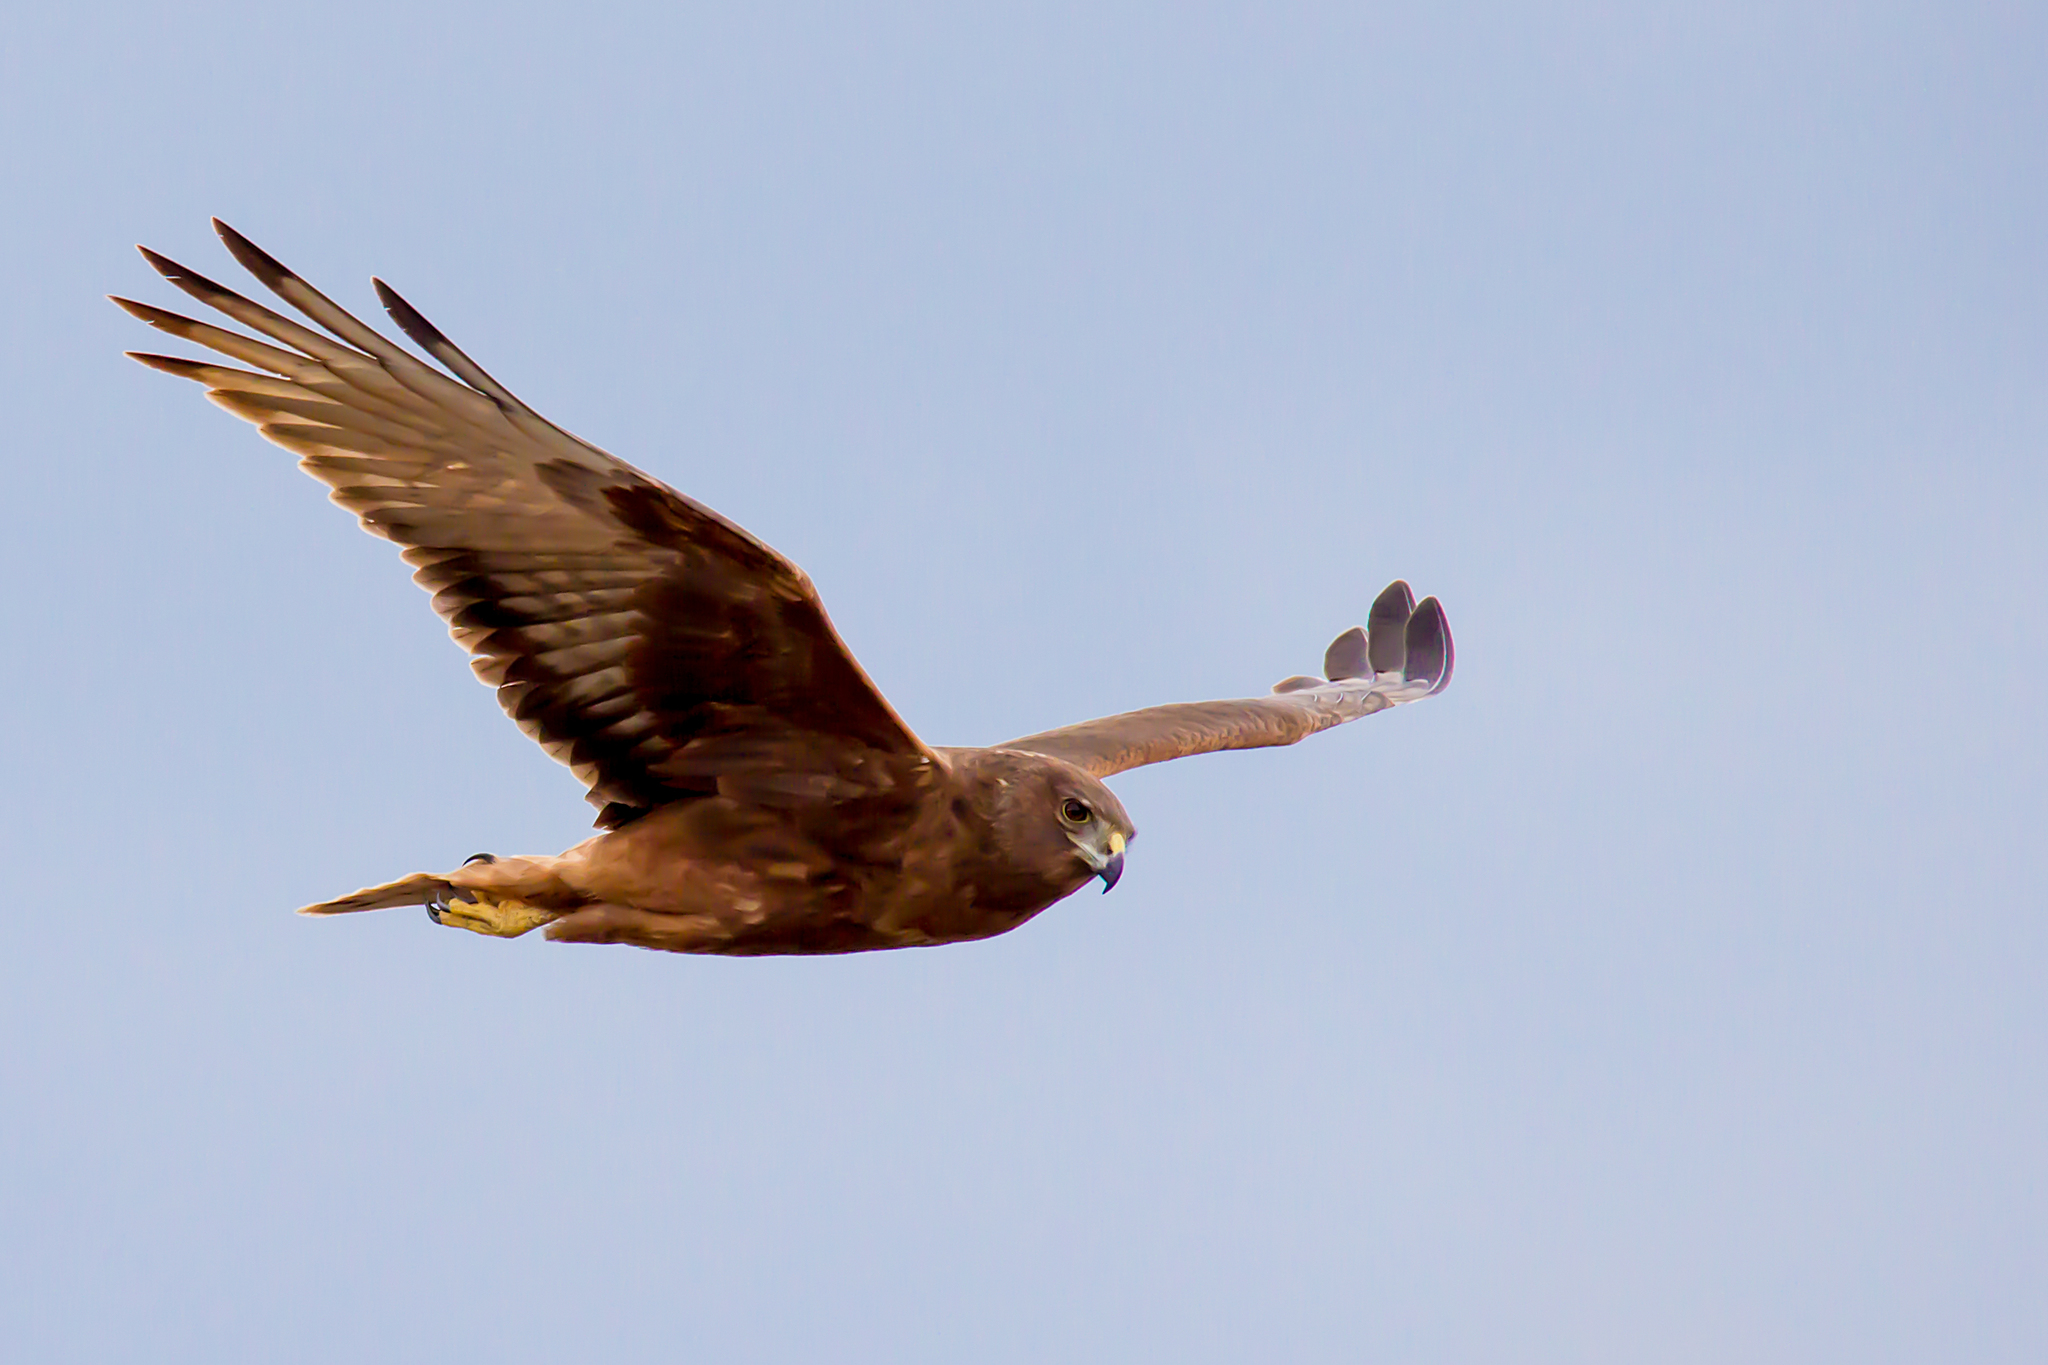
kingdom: Animalia
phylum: Chordata
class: Aves
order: Accipitriformes
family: Accipitridae
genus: Circus
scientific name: Circus approximans
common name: Swamp harrier
